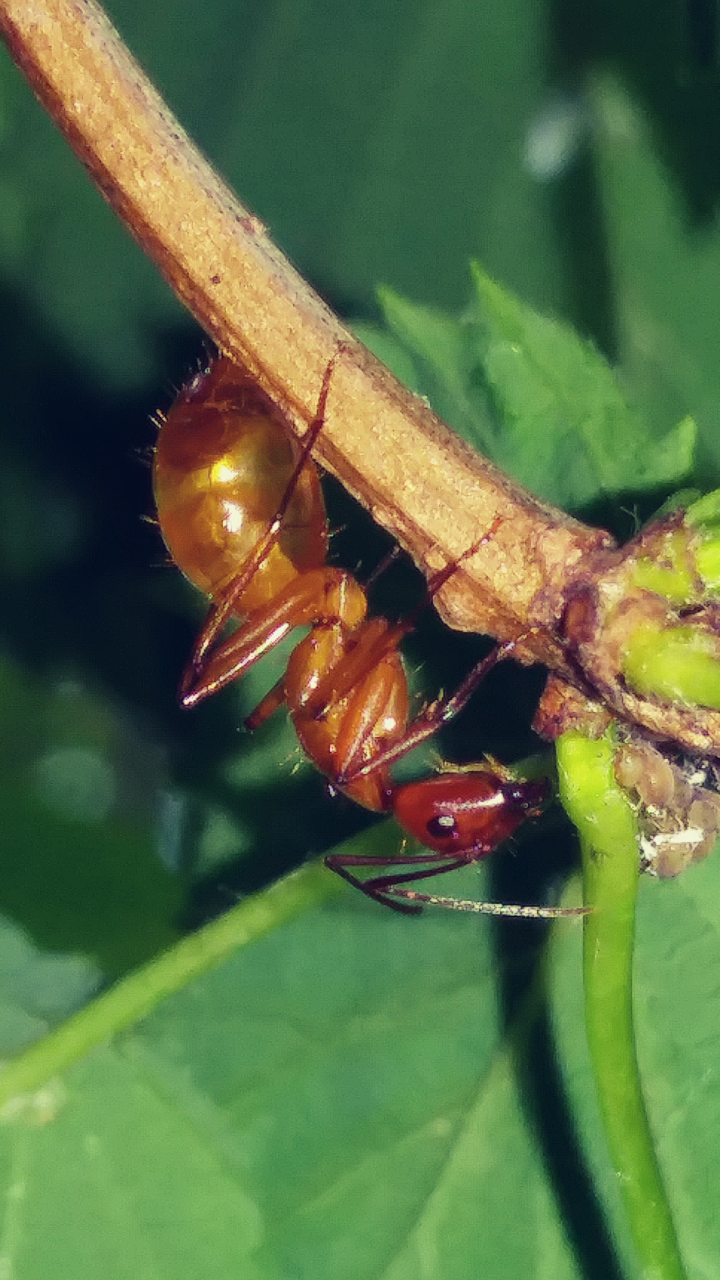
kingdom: Animalia
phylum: Arthropoda
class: Insecta
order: Hymenoptera
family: Formicidae
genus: Camponotus
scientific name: Camponotus castaneus
